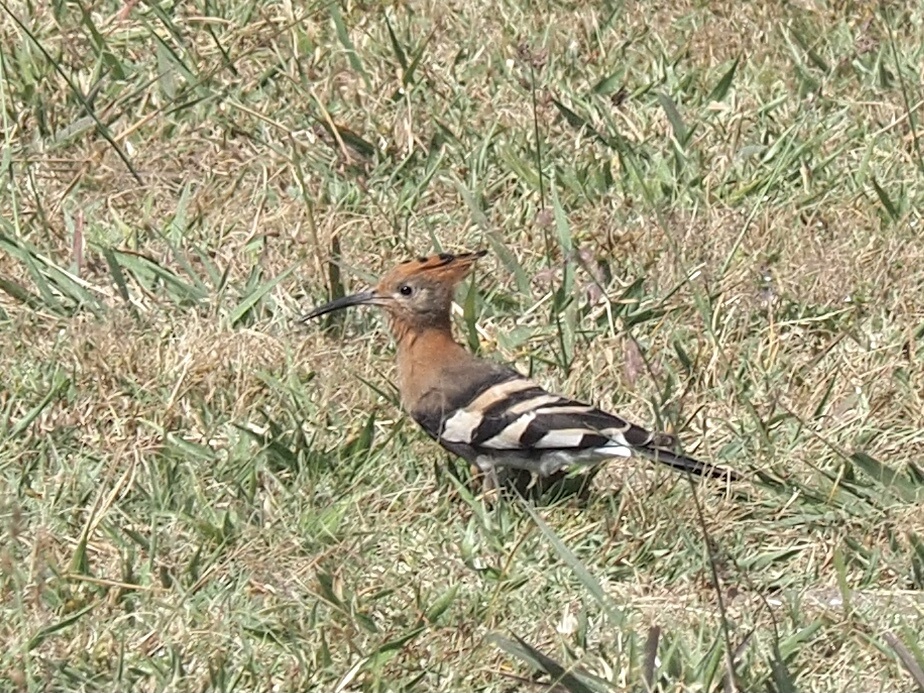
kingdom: Animalia
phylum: Chordata
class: Aves
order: Bucerotiformes
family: Upupidae
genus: Upupa
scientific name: Upupa africana
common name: African hoopoe
